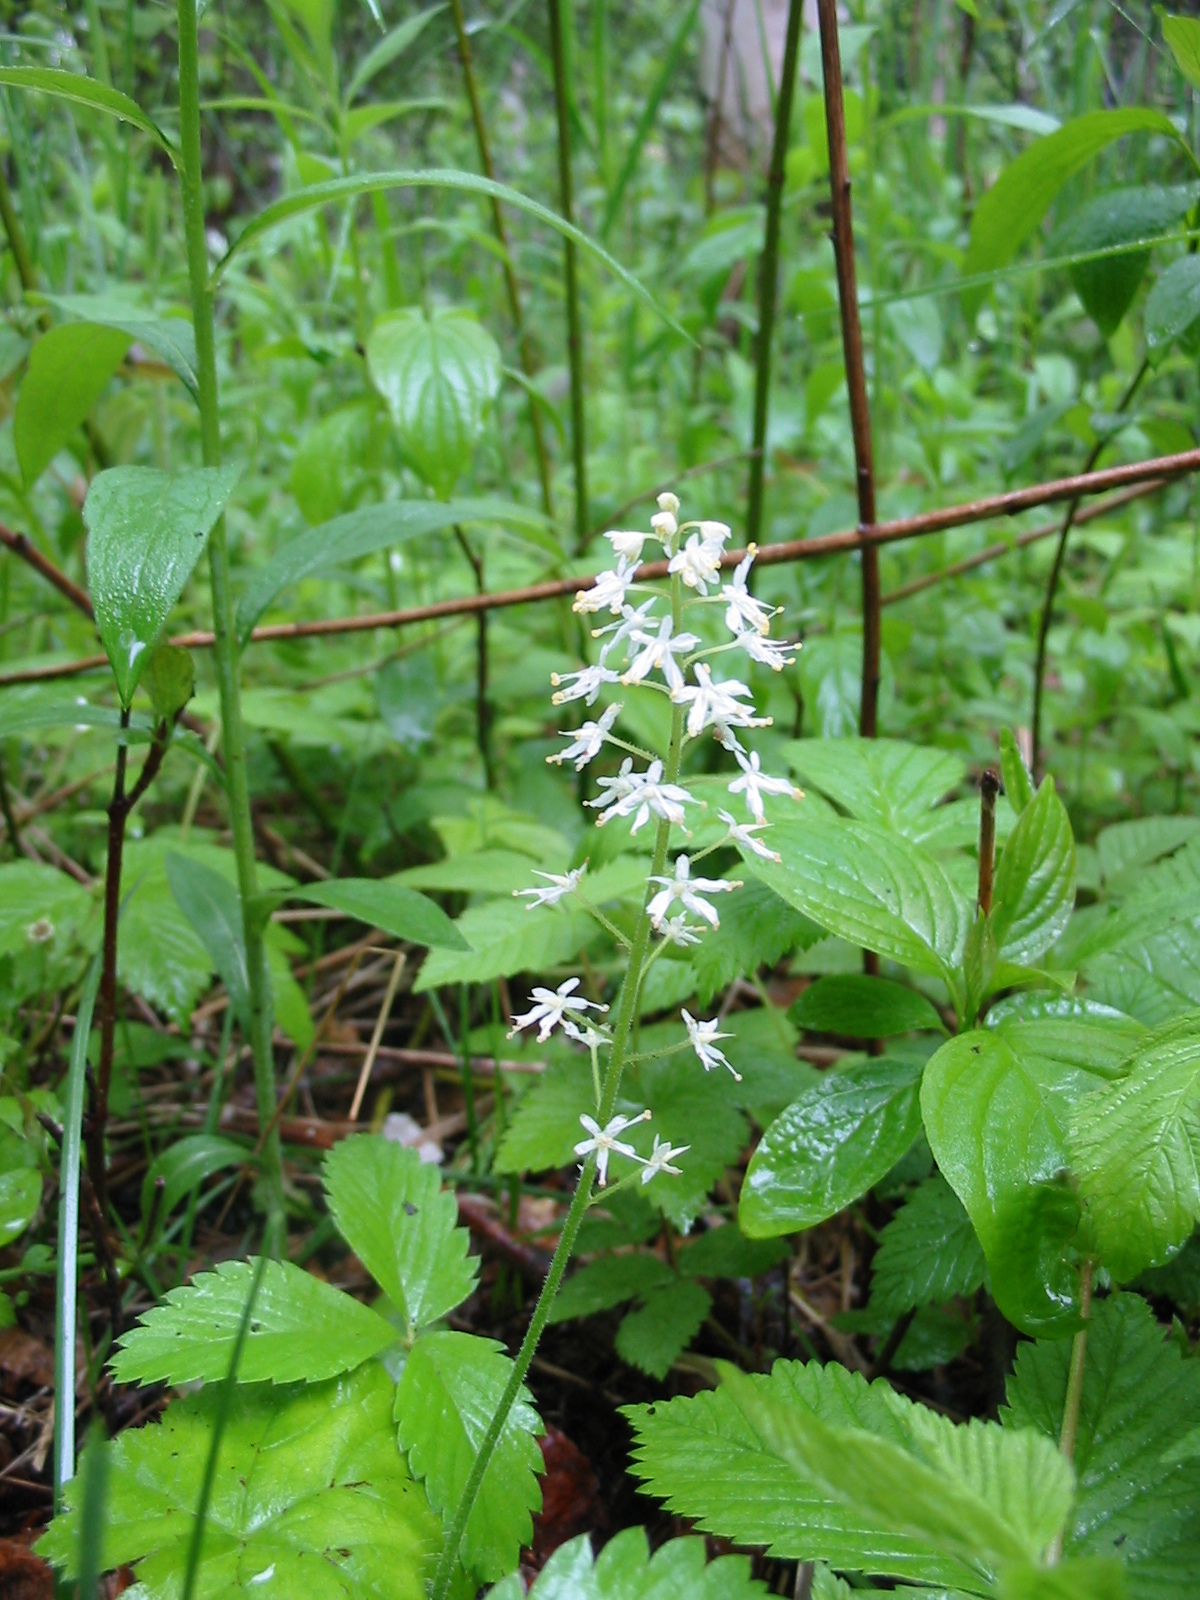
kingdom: Plantae
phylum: Tracheophyta
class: Magnoliopsida
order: Saxifragales
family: Saxifragaceae
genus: Tiarella
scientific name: Tiarella stolonifera
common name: Stoloniferous foamflower
